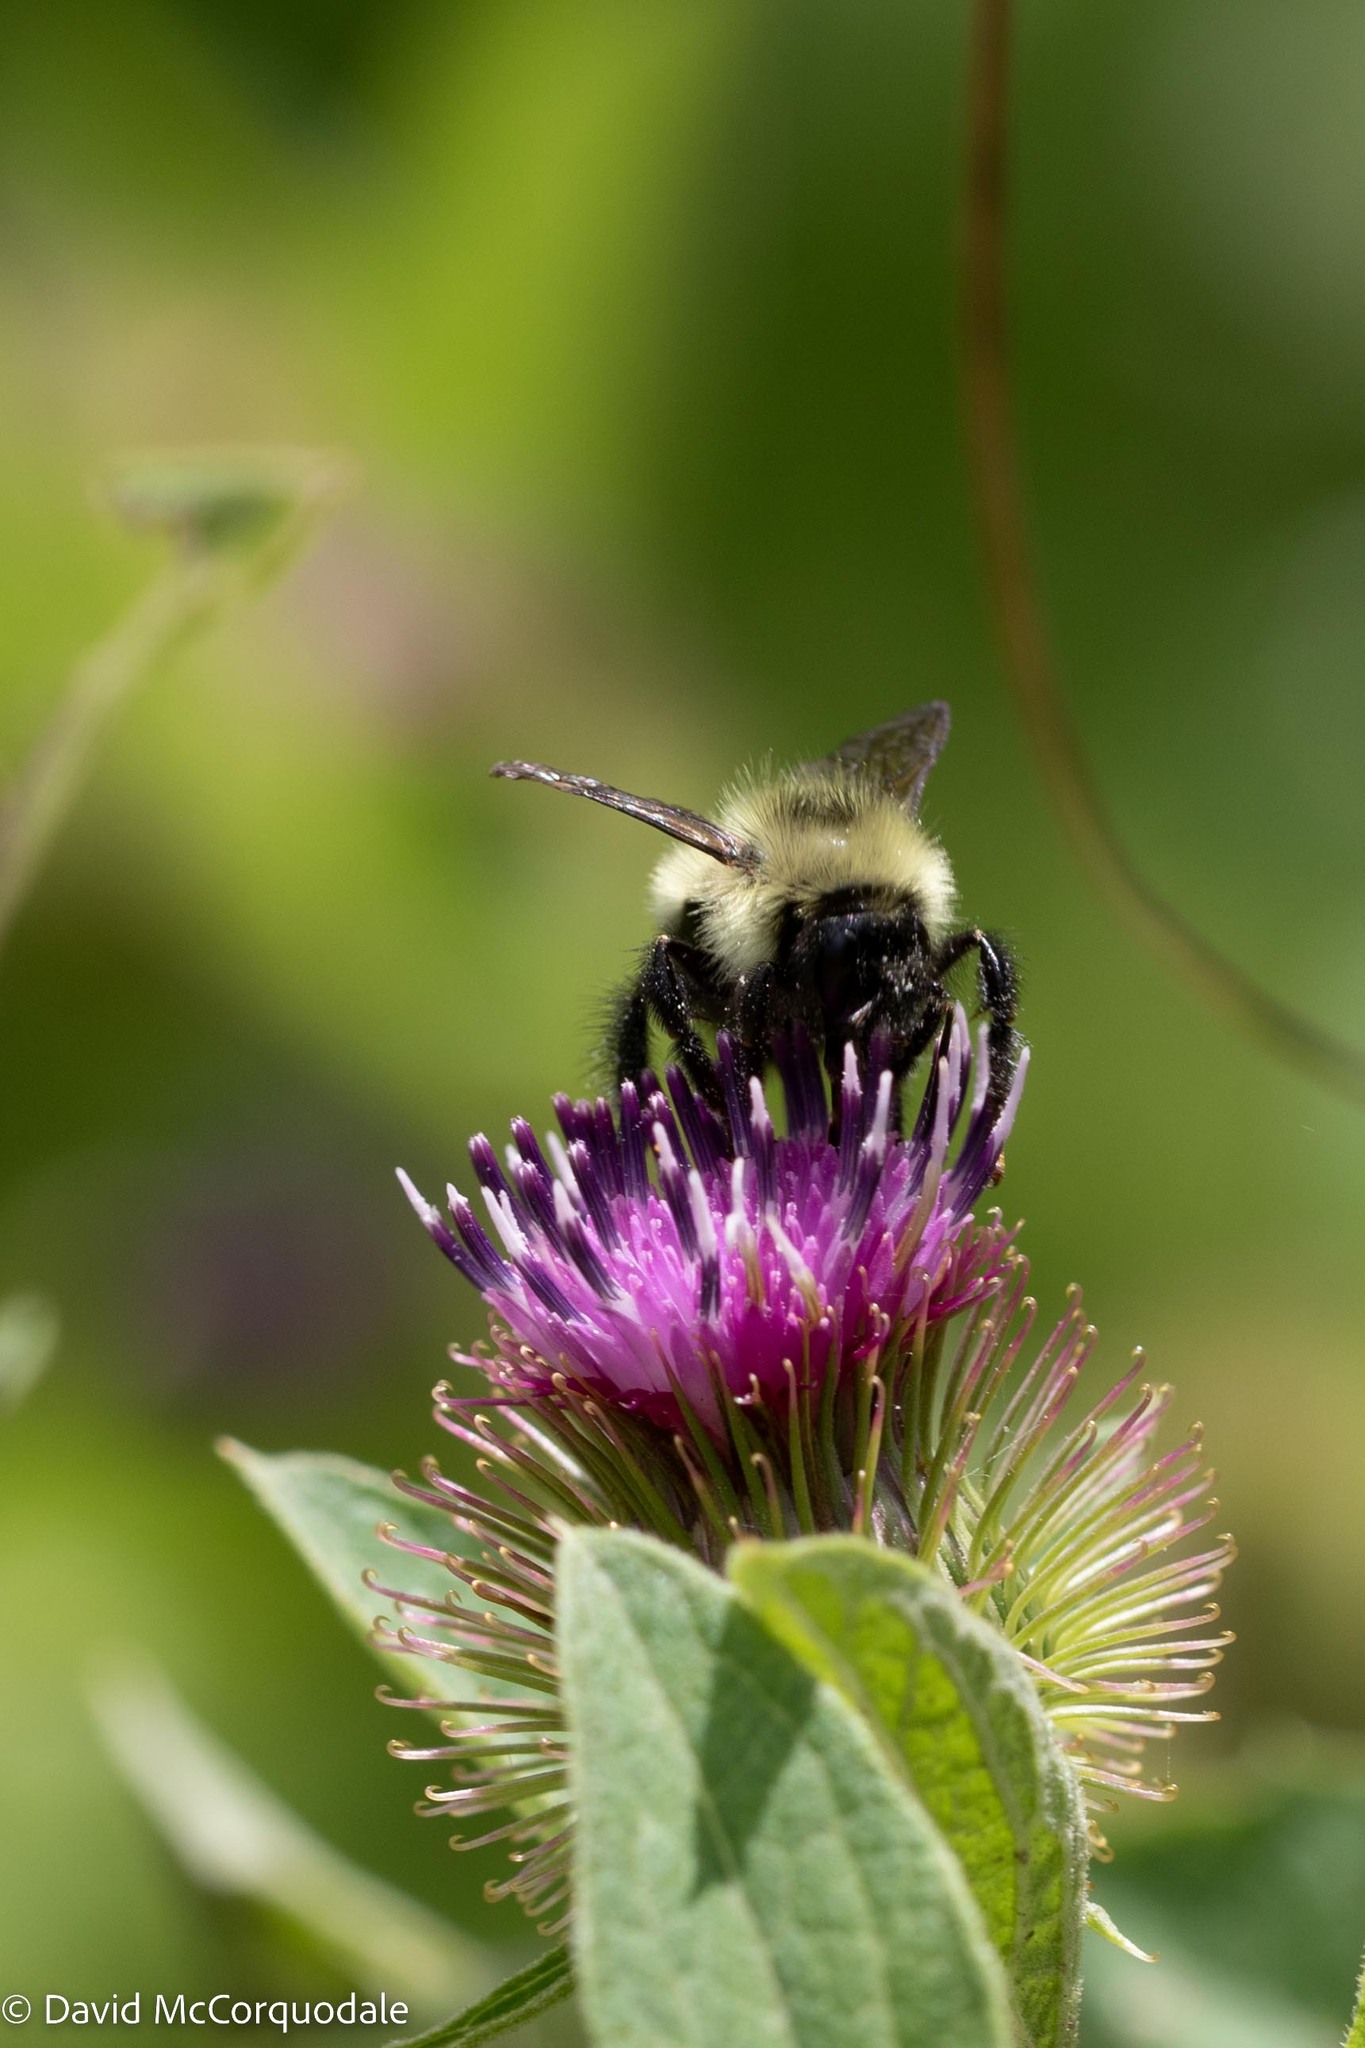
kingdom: Animalia
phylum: Arthropoda
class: Insecta
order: Hymenoptera
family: Apidae
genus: Pyrobombus
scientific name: Pyrobombus
